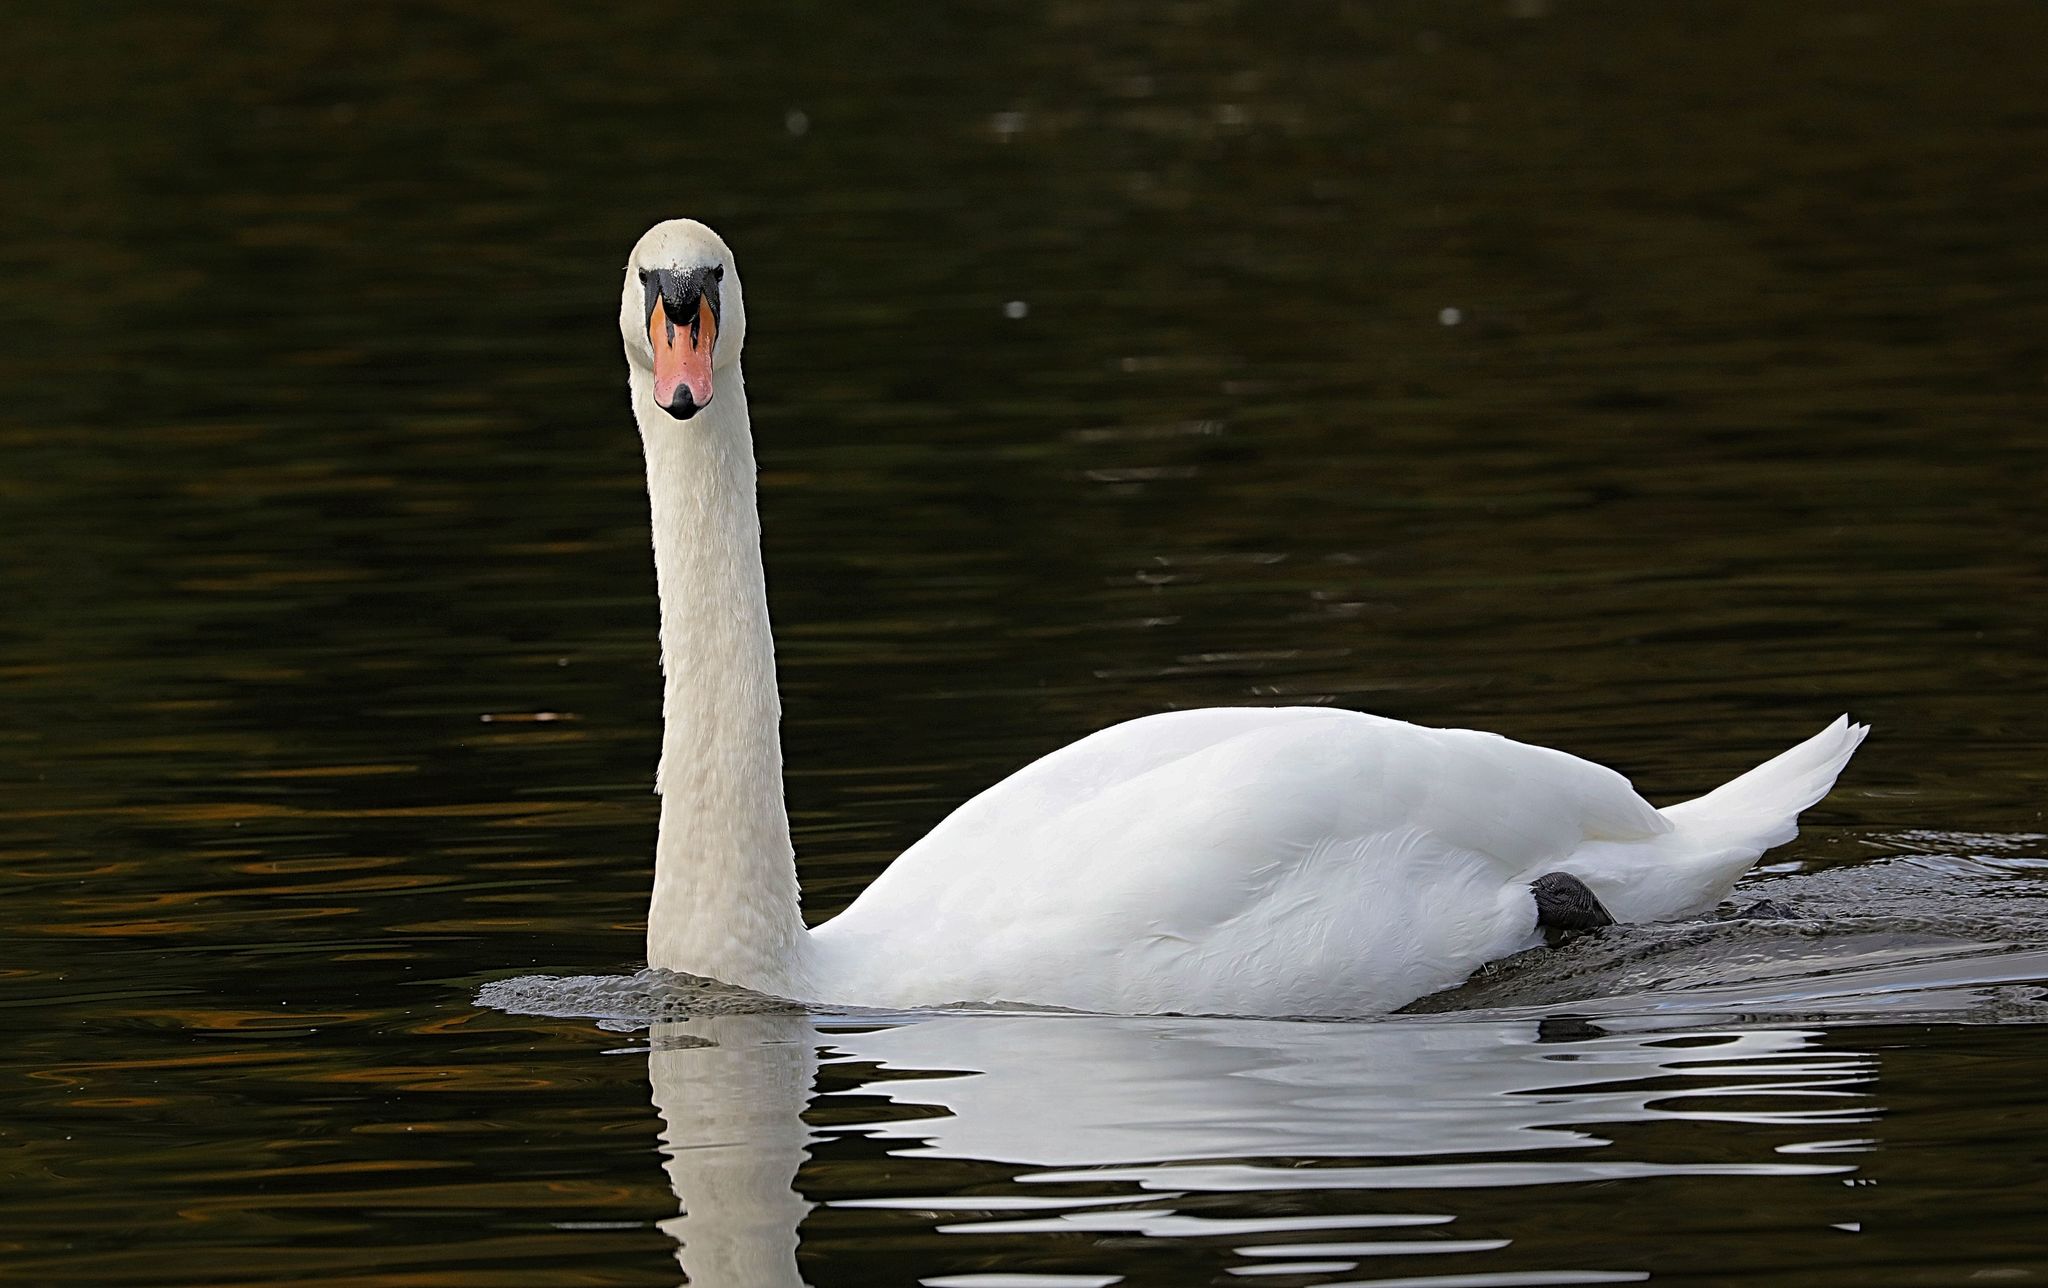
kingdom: Animalia
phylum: Chordata
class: Aves
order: Anseriformes
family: Anatidae
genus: Cygnus
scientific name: Cygnus olor
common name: Mute swan
